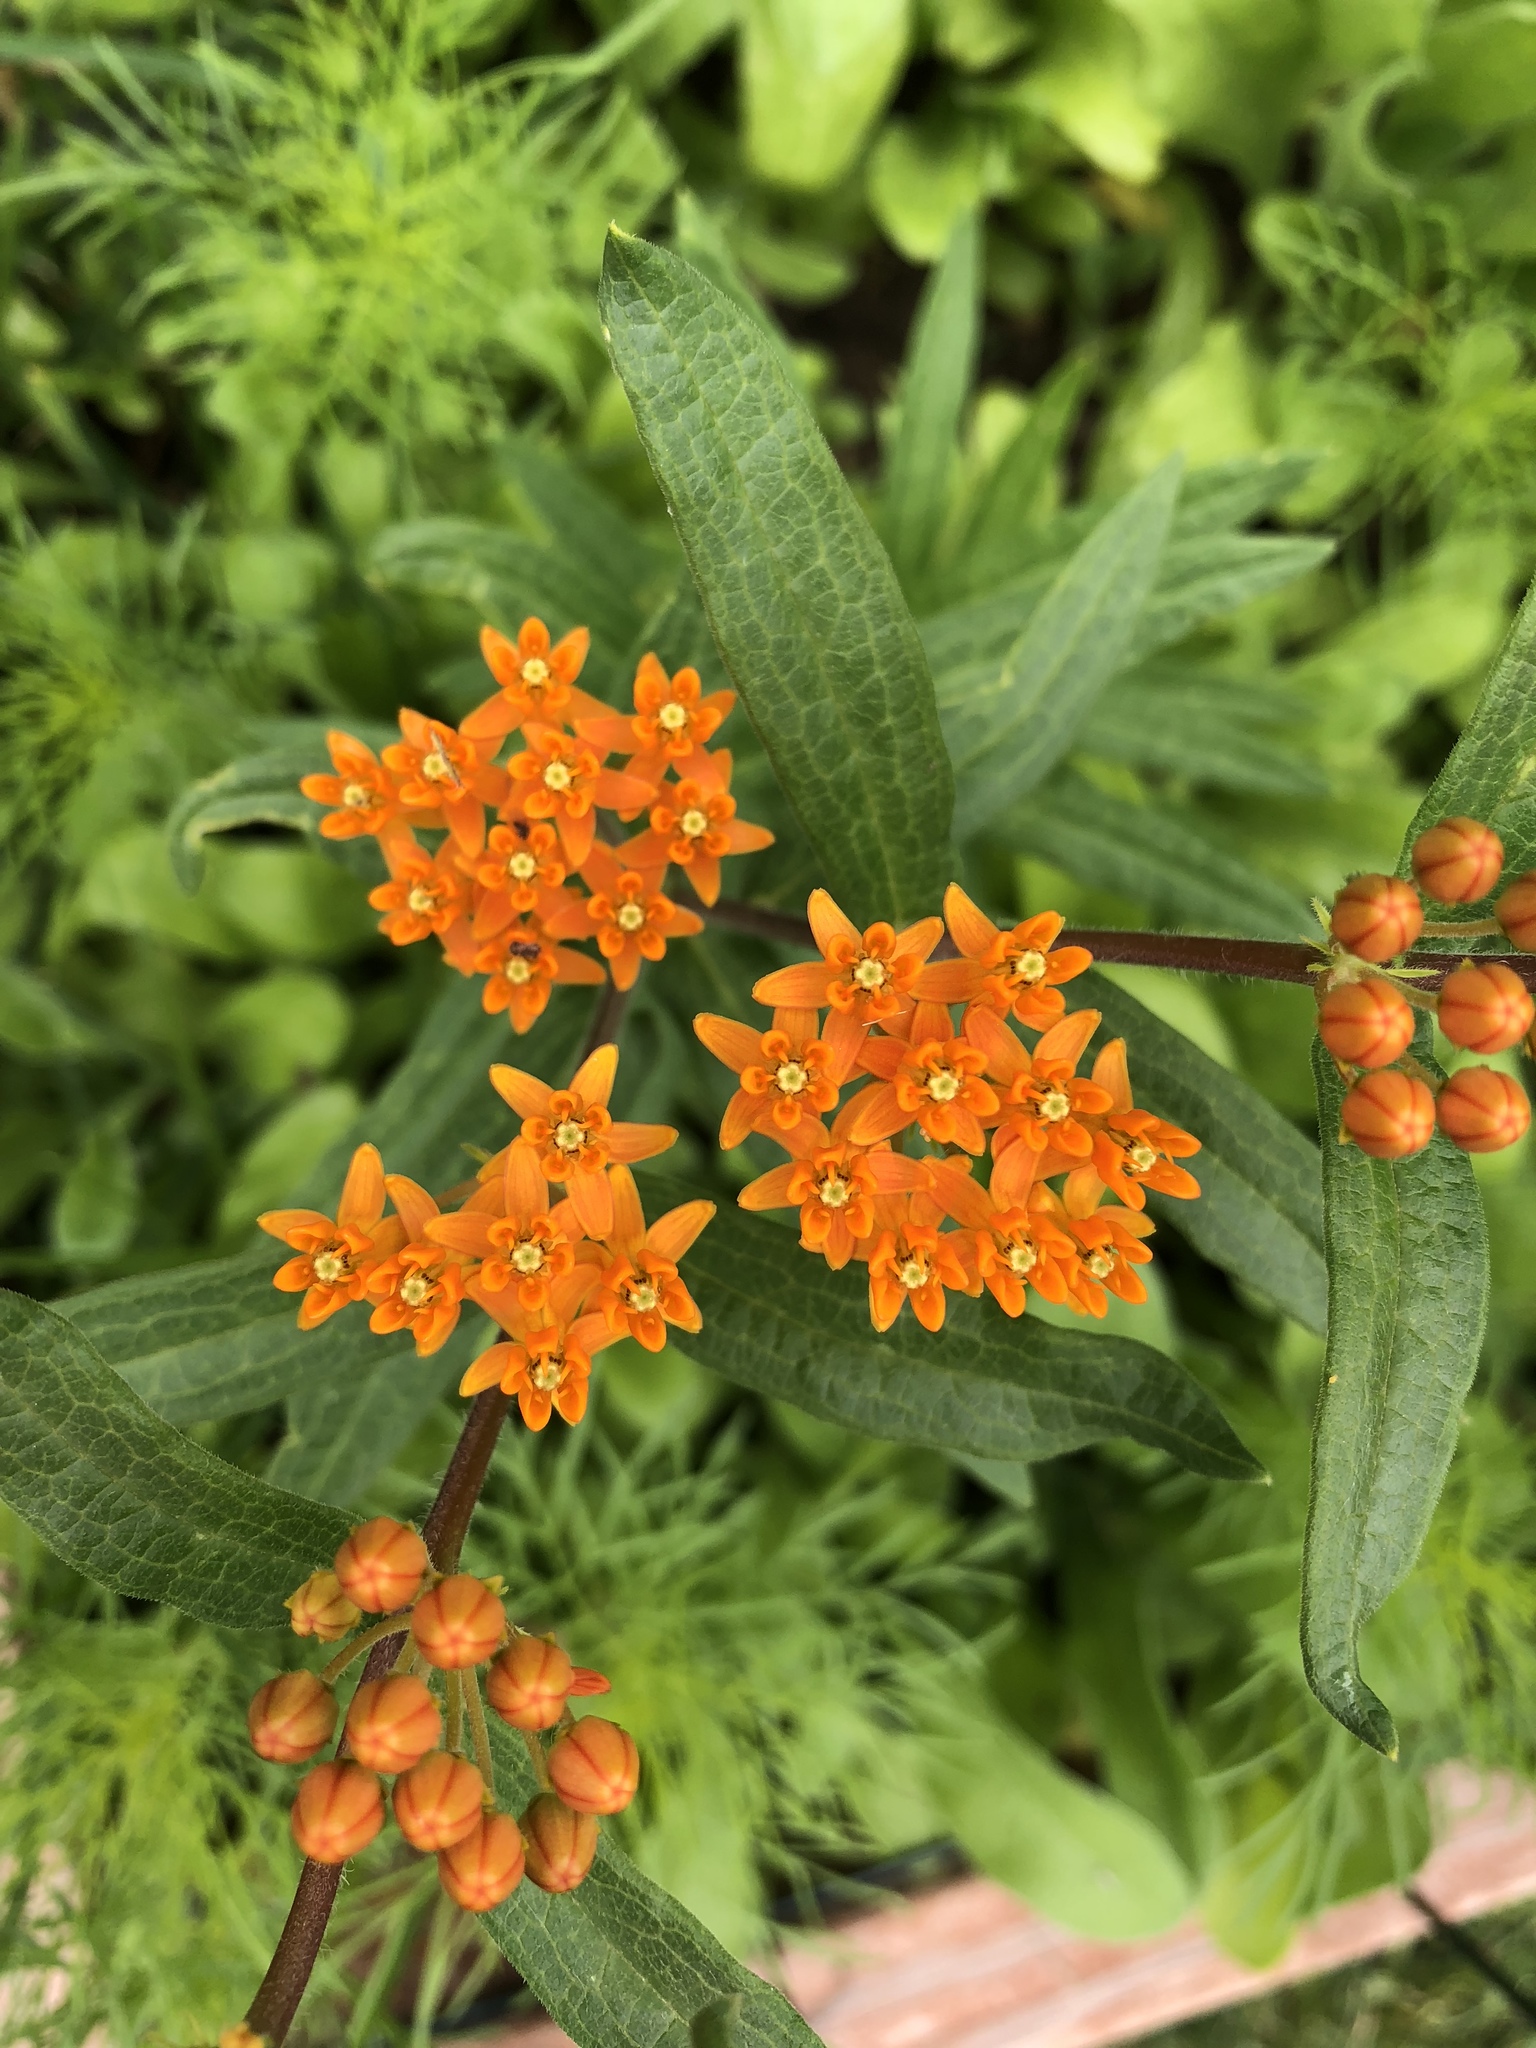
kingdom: Plantae
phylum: Tracheophyta
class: Magnoliopsida
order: Gentianales
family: Apocynaceae
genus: Asclepias
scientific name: Asclepias tuberosa
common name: Butterfly milkweed
